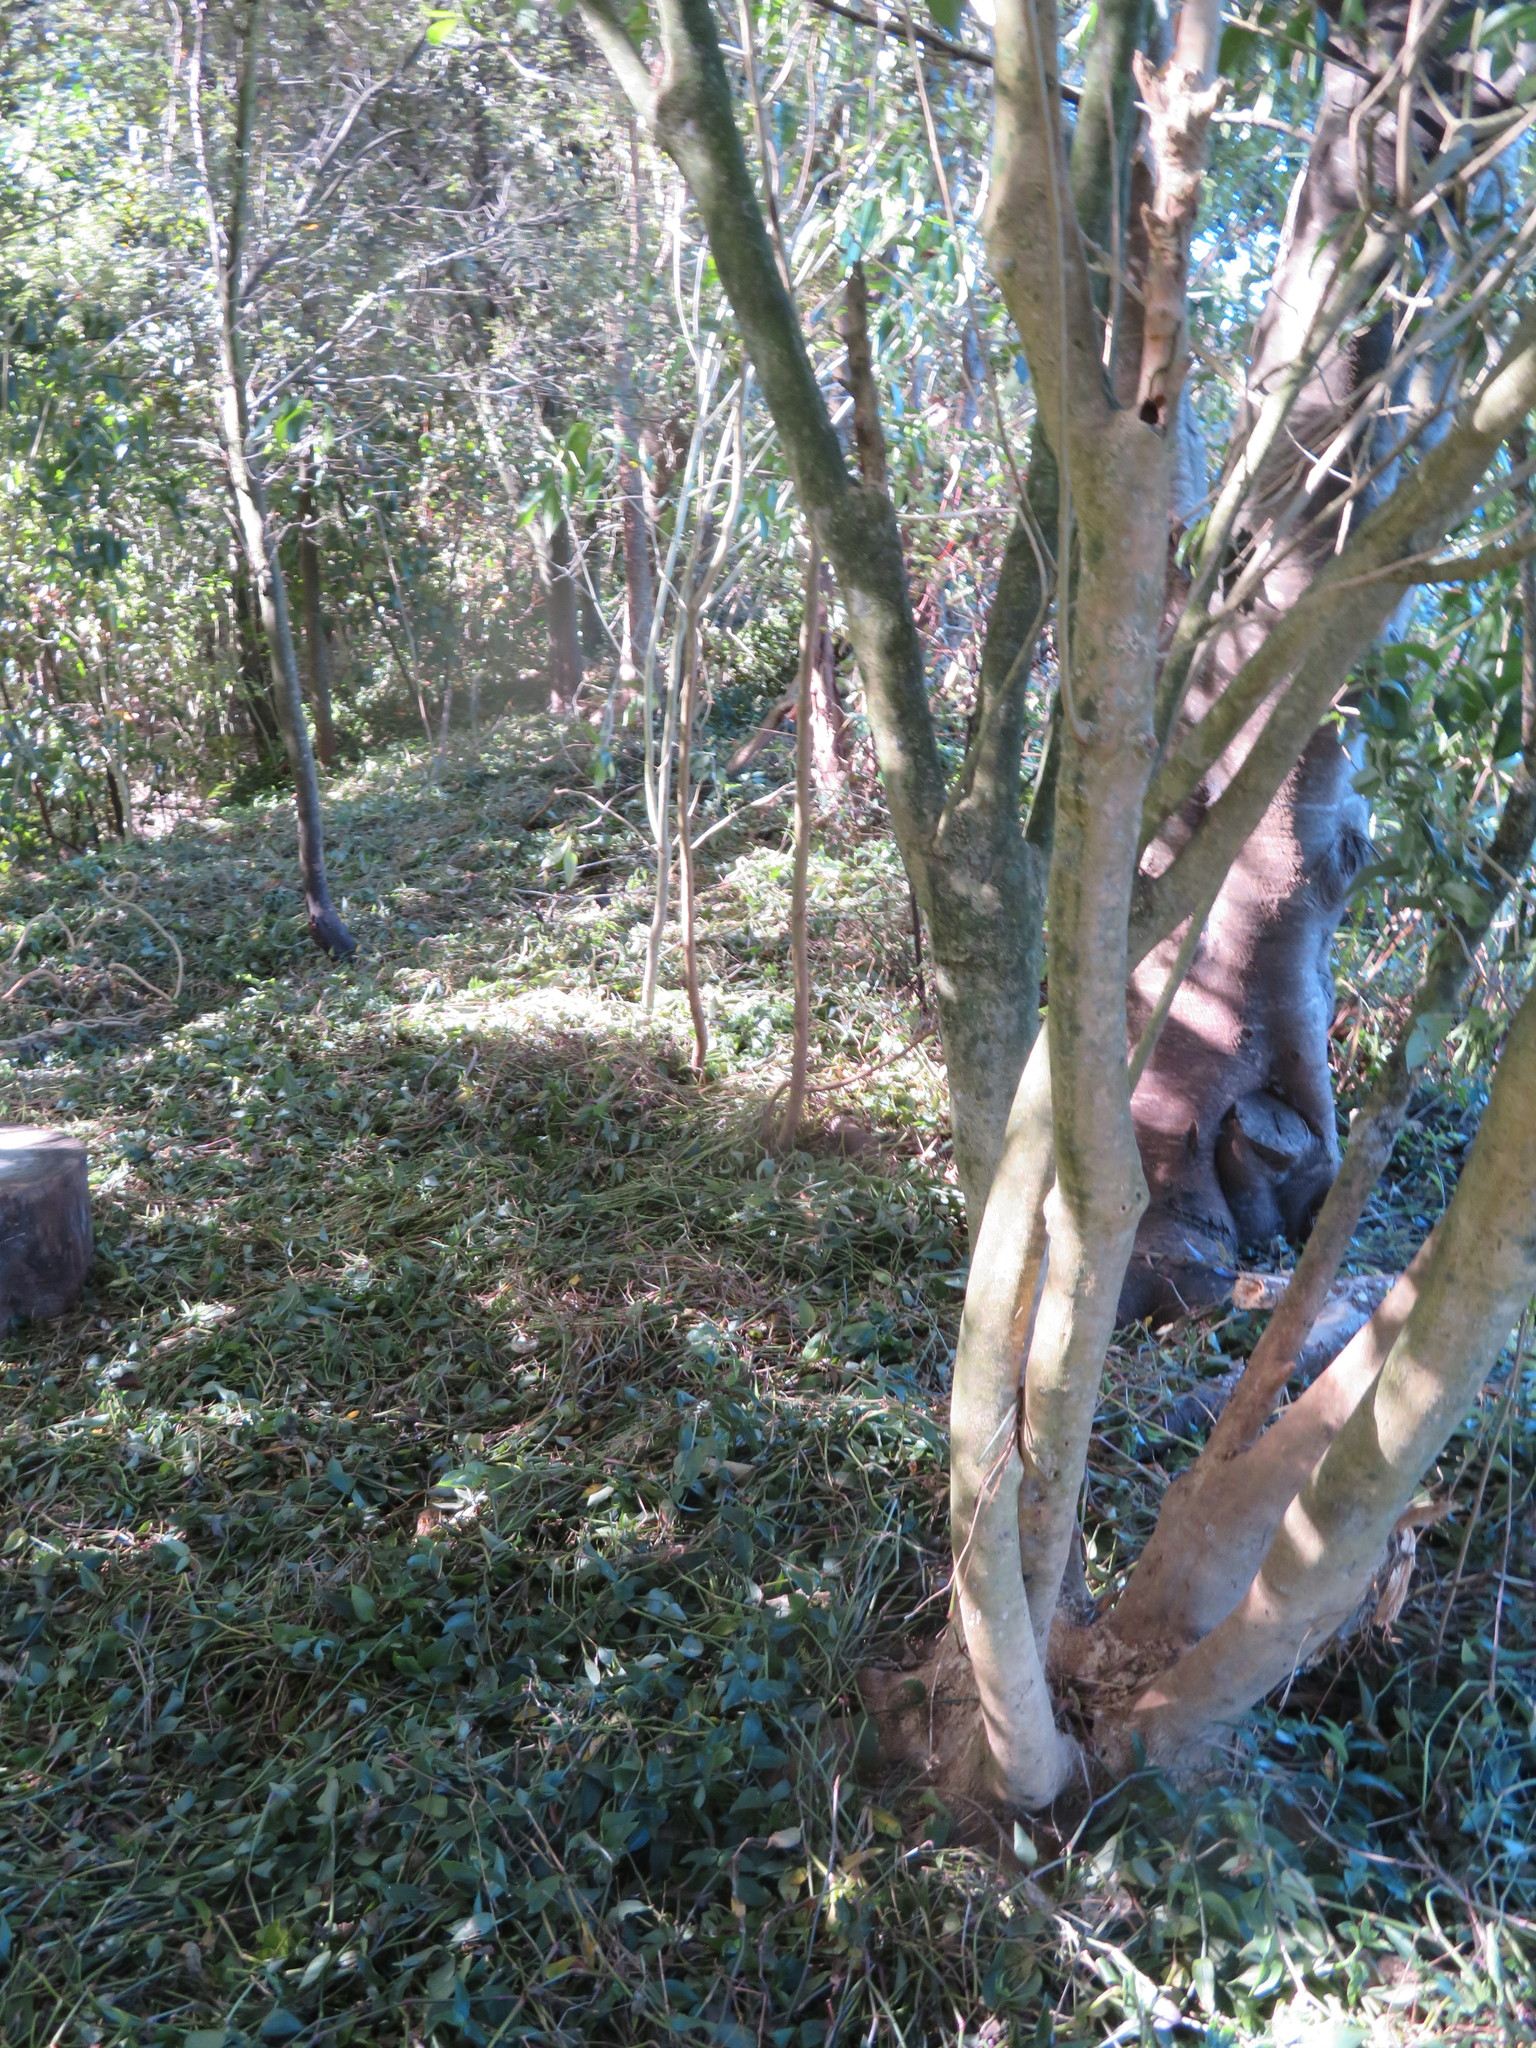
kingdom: Plantae
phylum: Tracheophyta
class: Liliopsida
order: Commelinales
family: Commelinaceae
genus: Tradescantia
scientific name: Tradescantia fluminensis
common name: Wandering-jew
